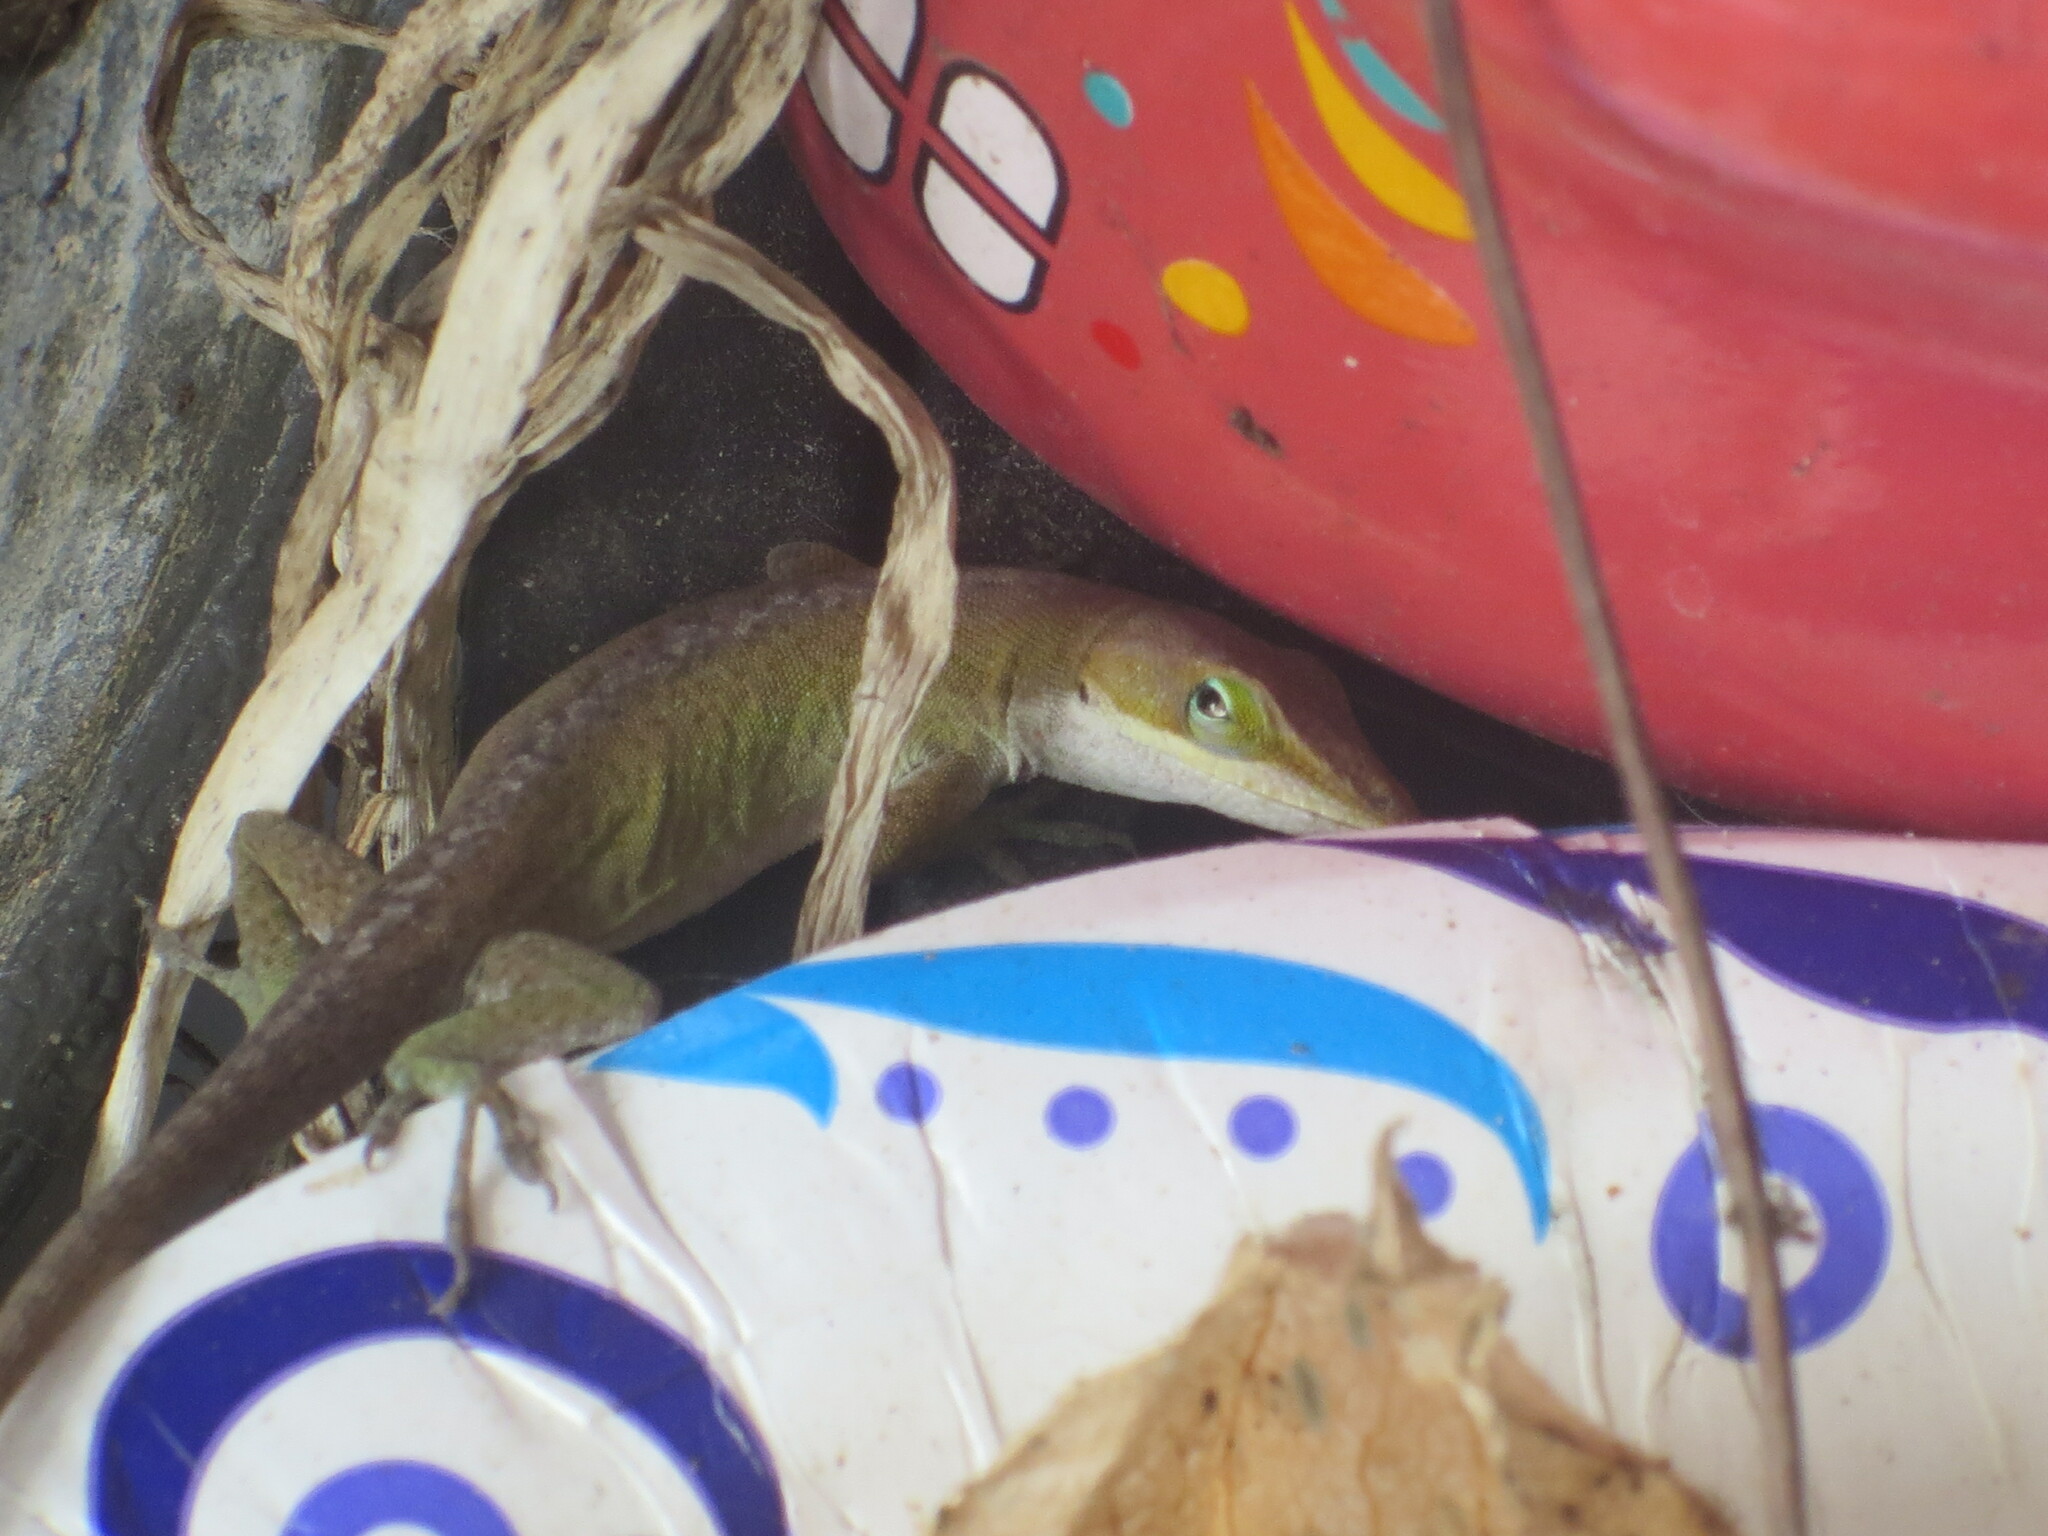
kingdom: Animalia
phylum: Chordata
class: Squamata
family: Dactyloidae
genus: Anolis
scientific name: Anolis carolinensis
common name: Green anole
